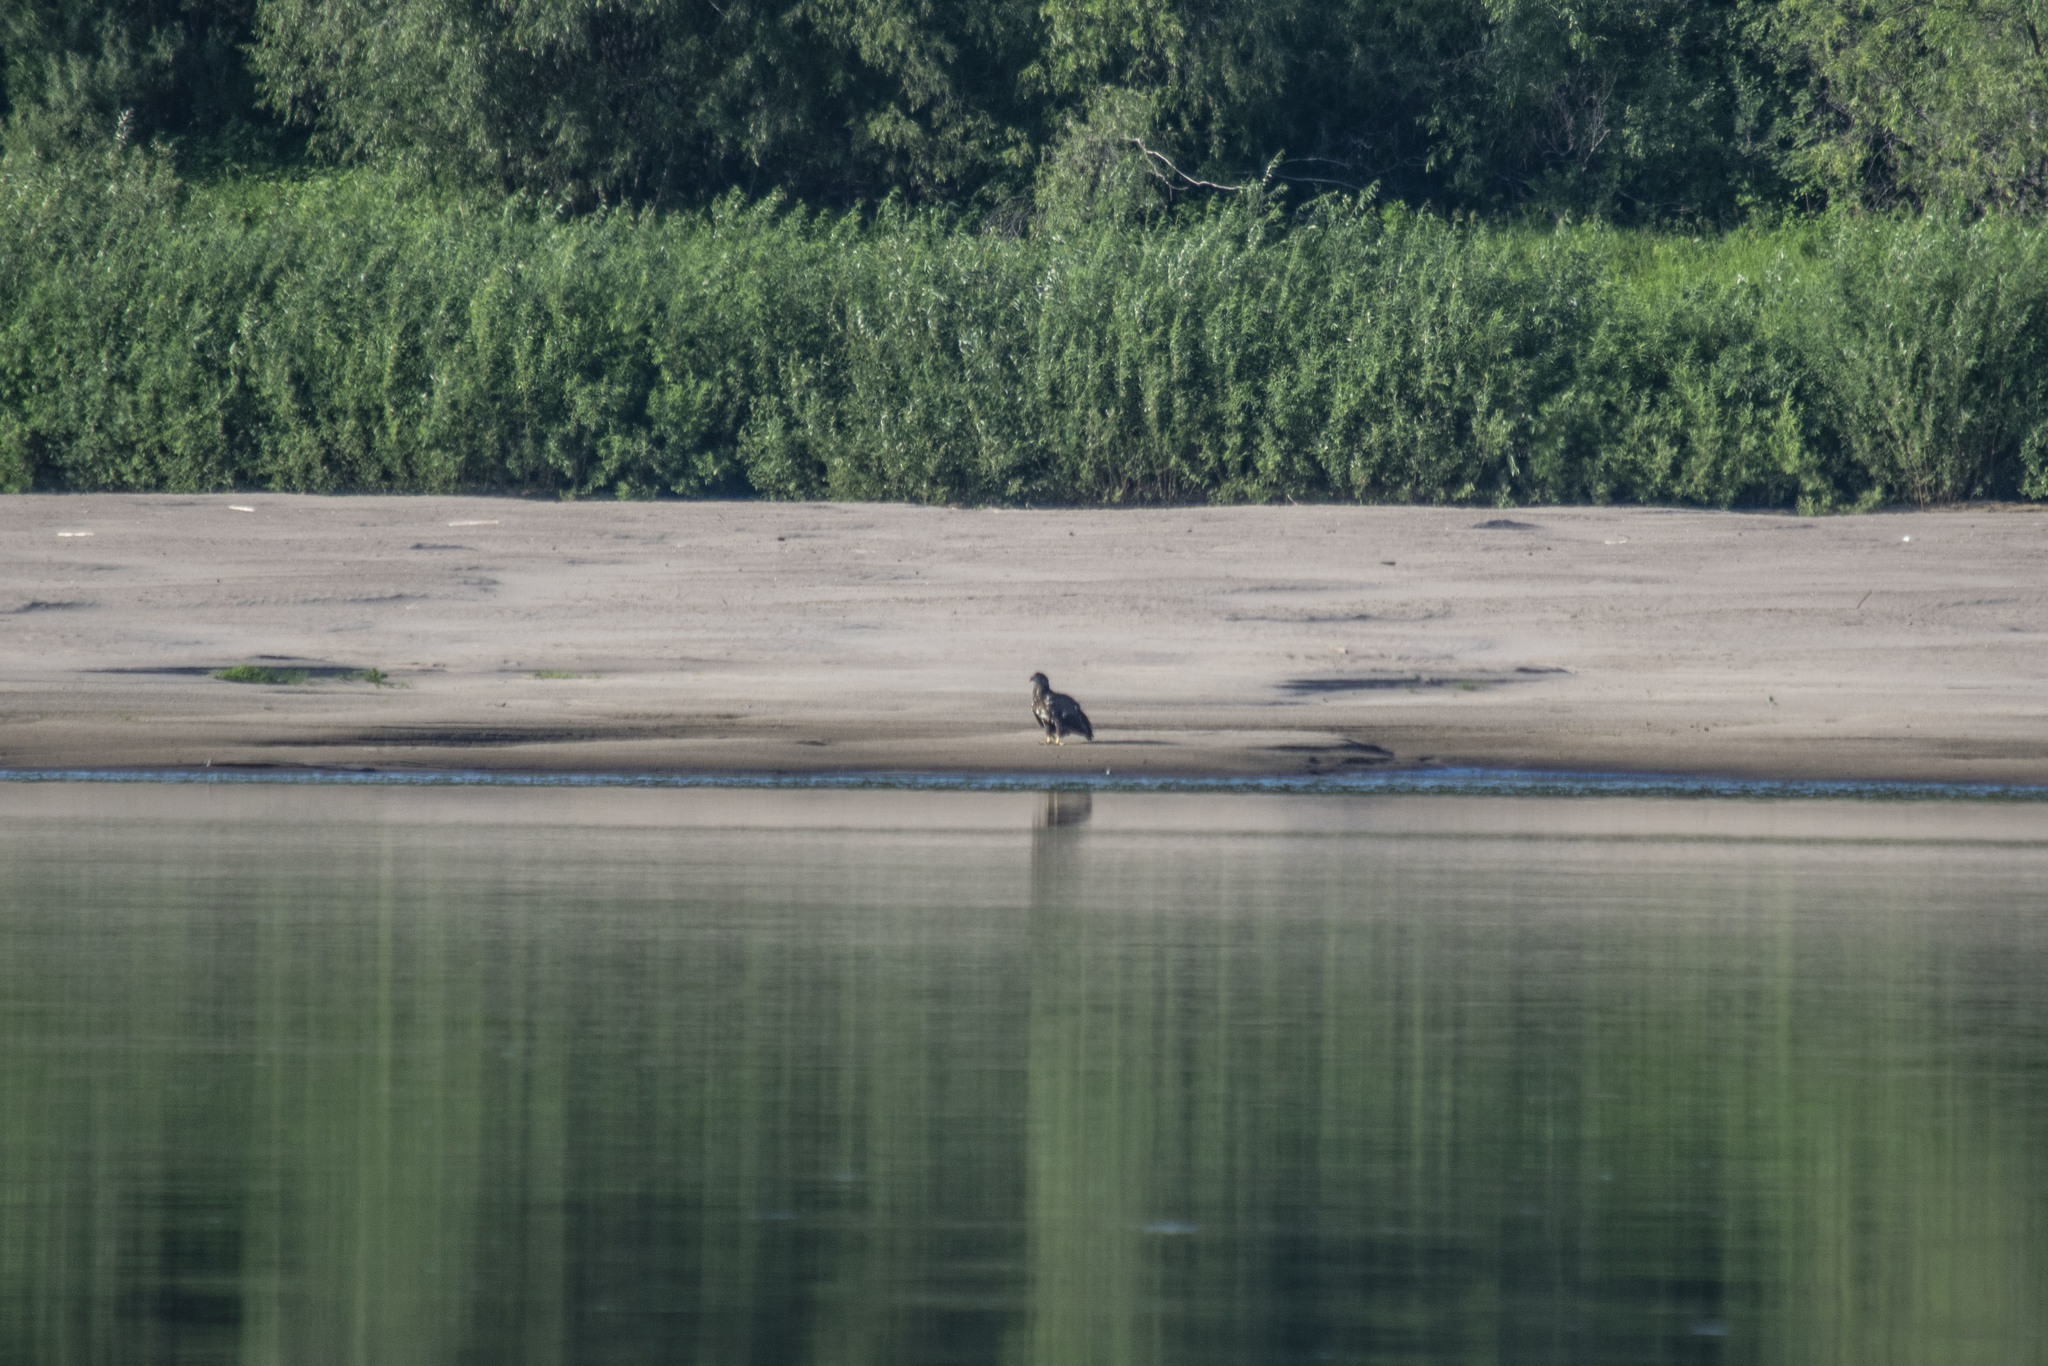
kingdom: Animalia
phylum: Chordata
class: Aves
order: Accipitriformes
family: Accipitridae
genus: Haliaeetus
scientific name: Haliaeetus albicilla
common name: White-tailed eagle
